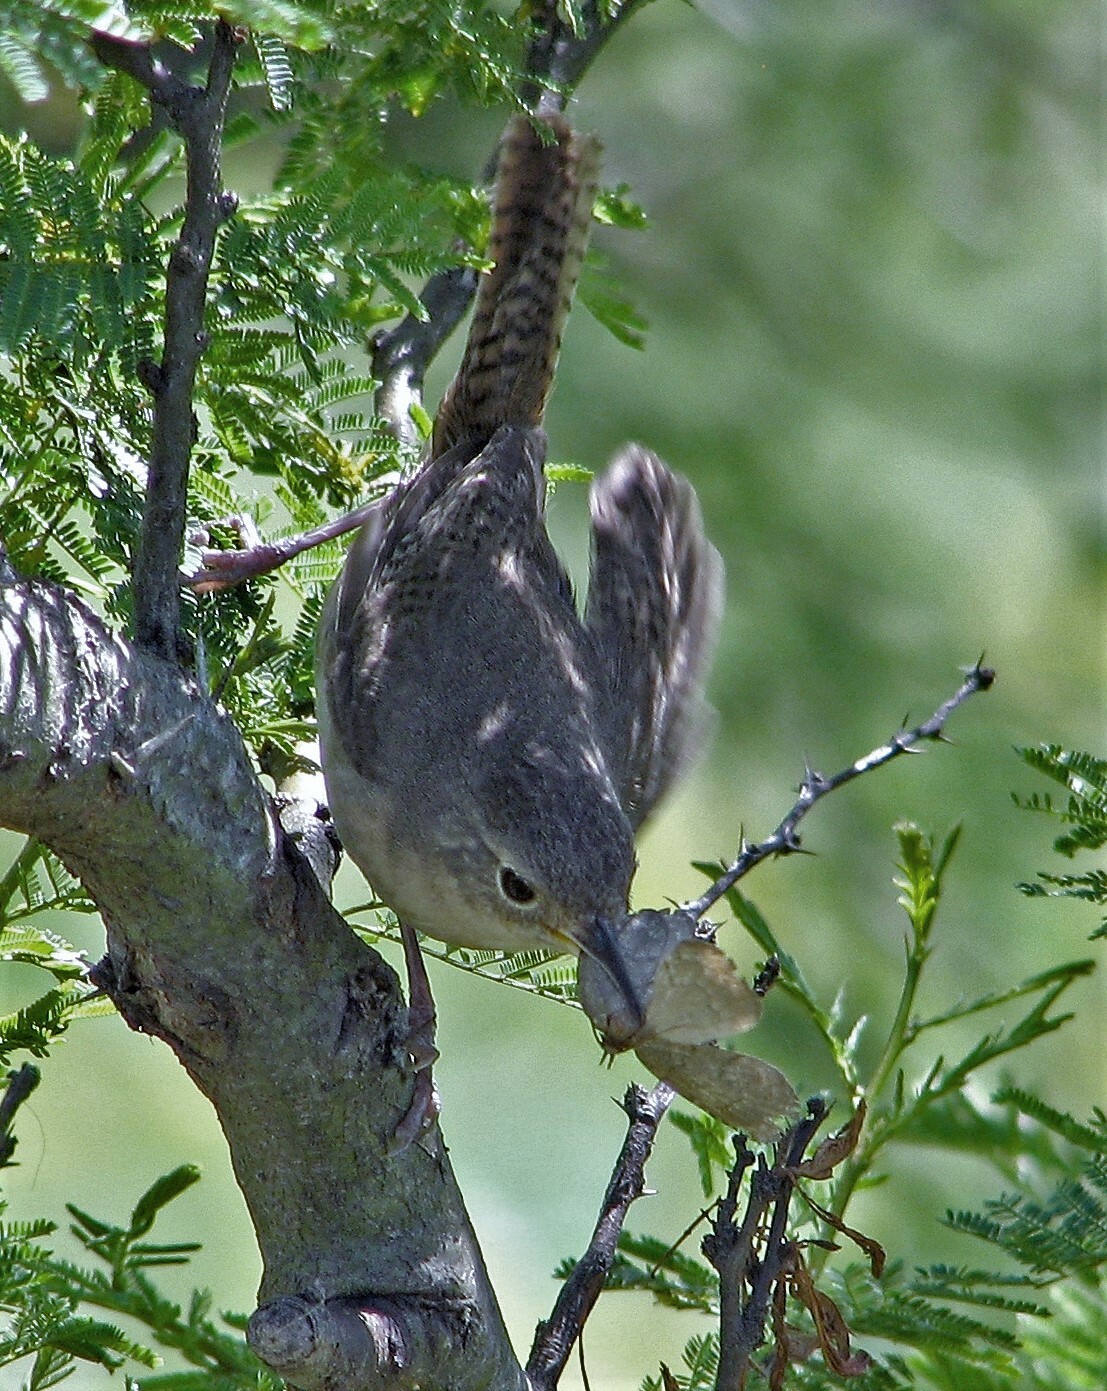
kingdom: Animalia
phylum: Chordata
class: Aves
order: Passeriformes
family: Troglodytidae
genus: Troglodytes
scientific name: Troglodytes aedon
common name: House wren
